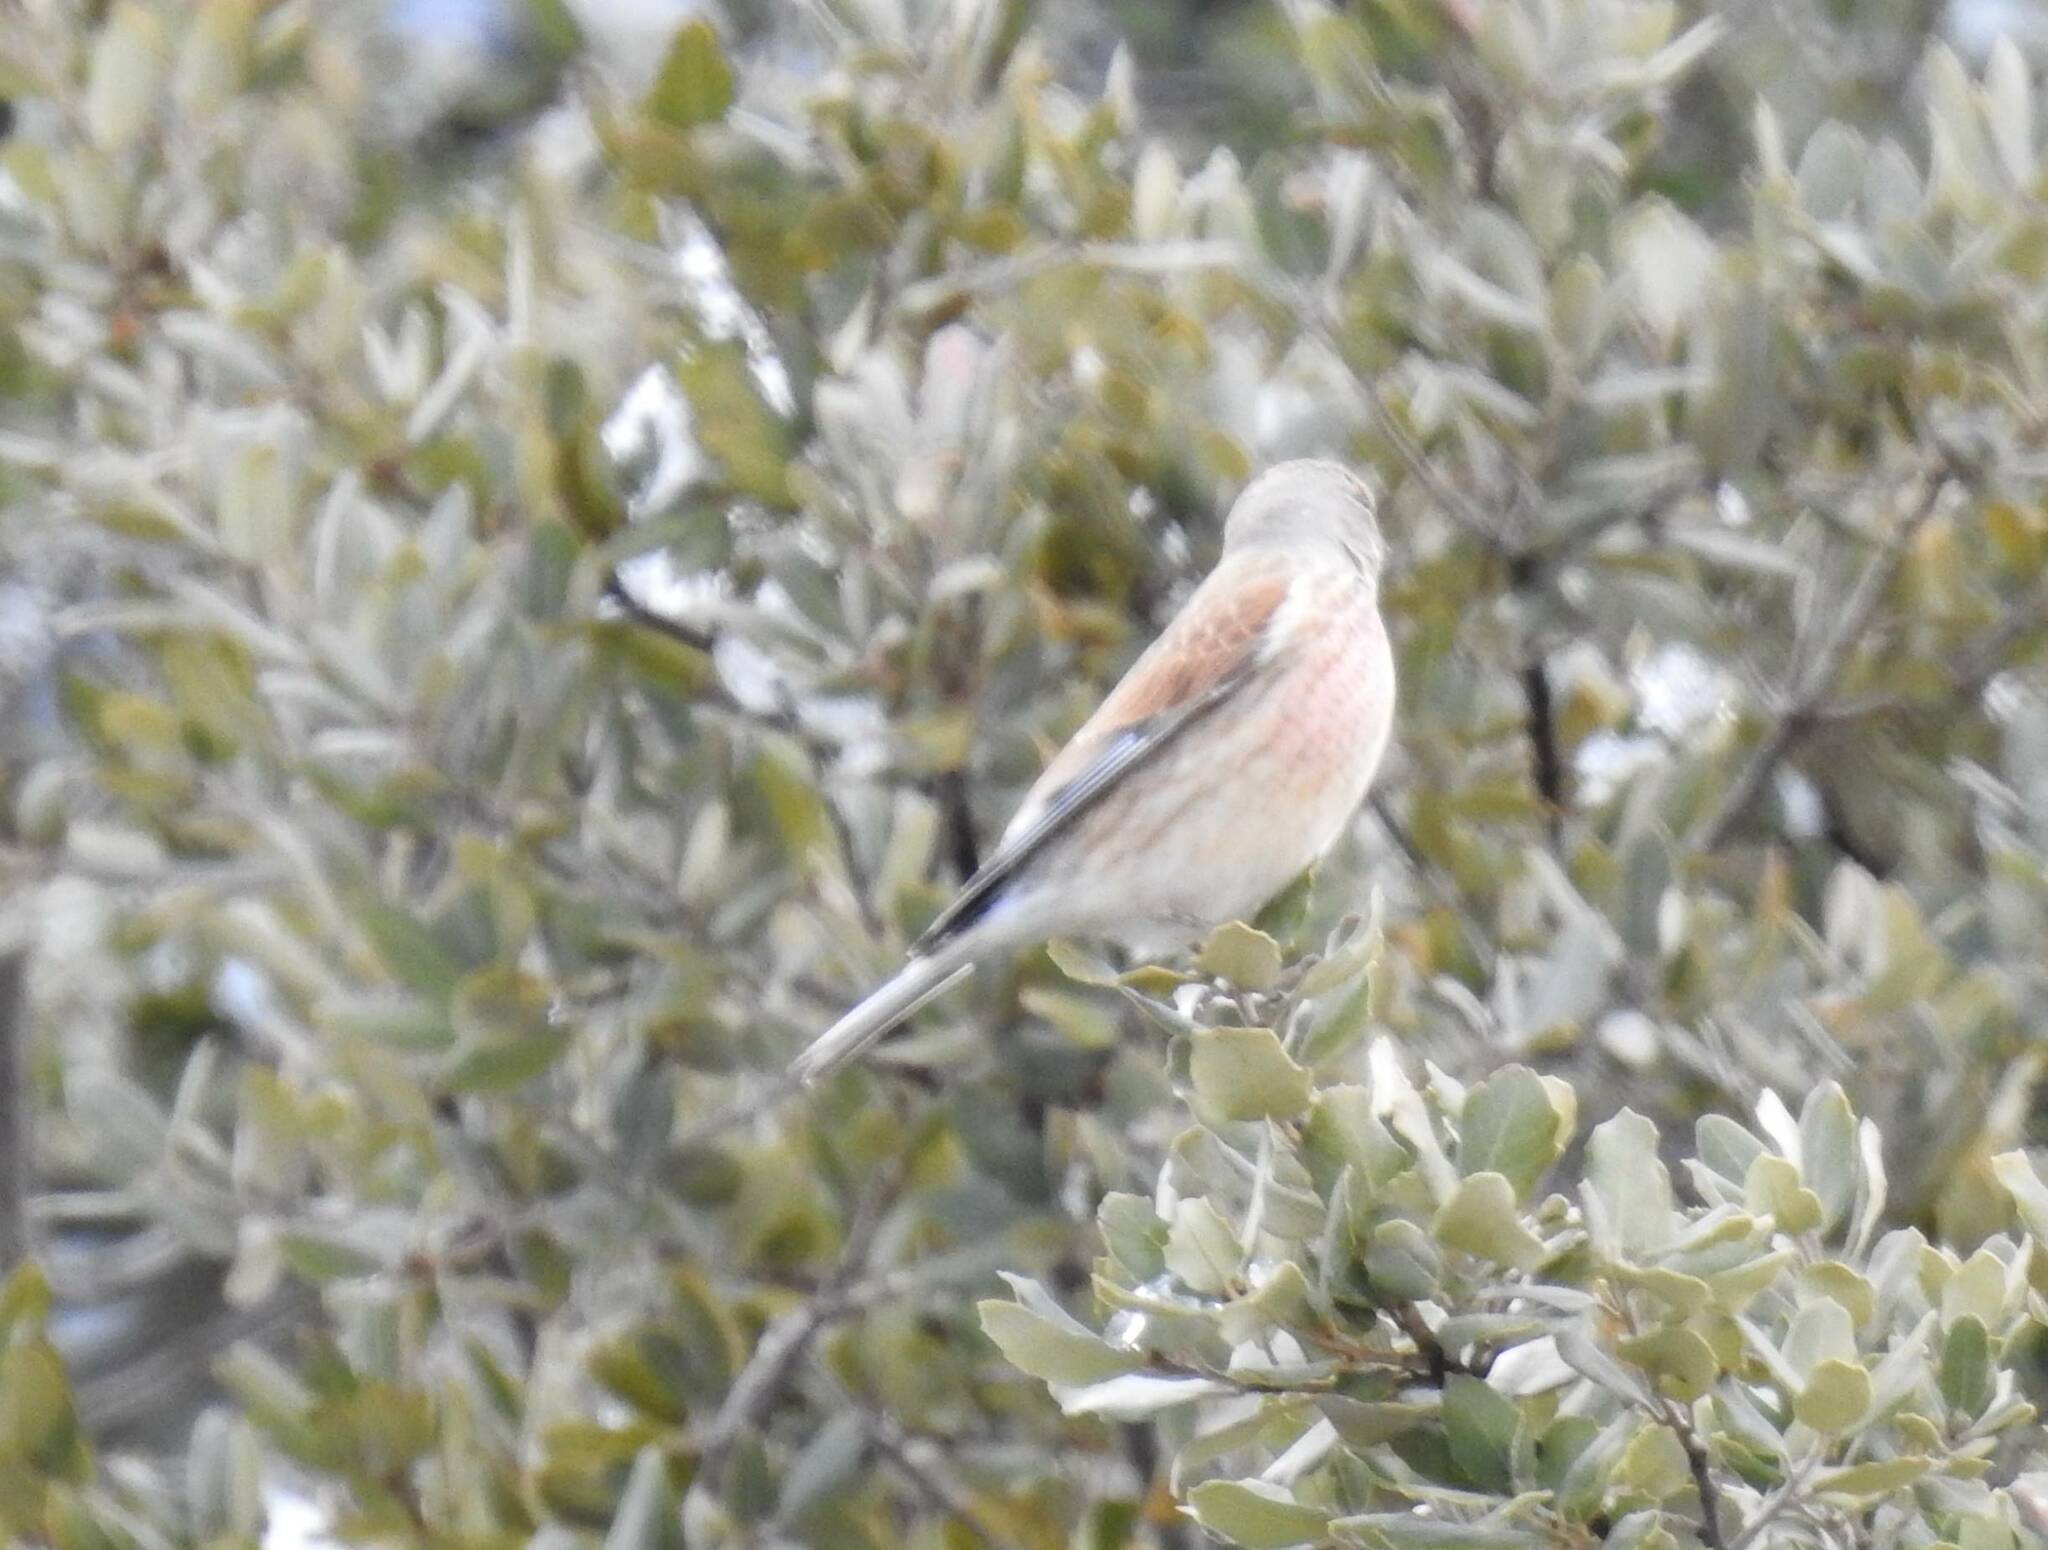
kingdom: Animalia
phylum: Chordata
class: Aves
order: Passeriformes
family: Fringillidae
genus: Linaria
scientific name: Linaria cannabina
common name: Common linnet
